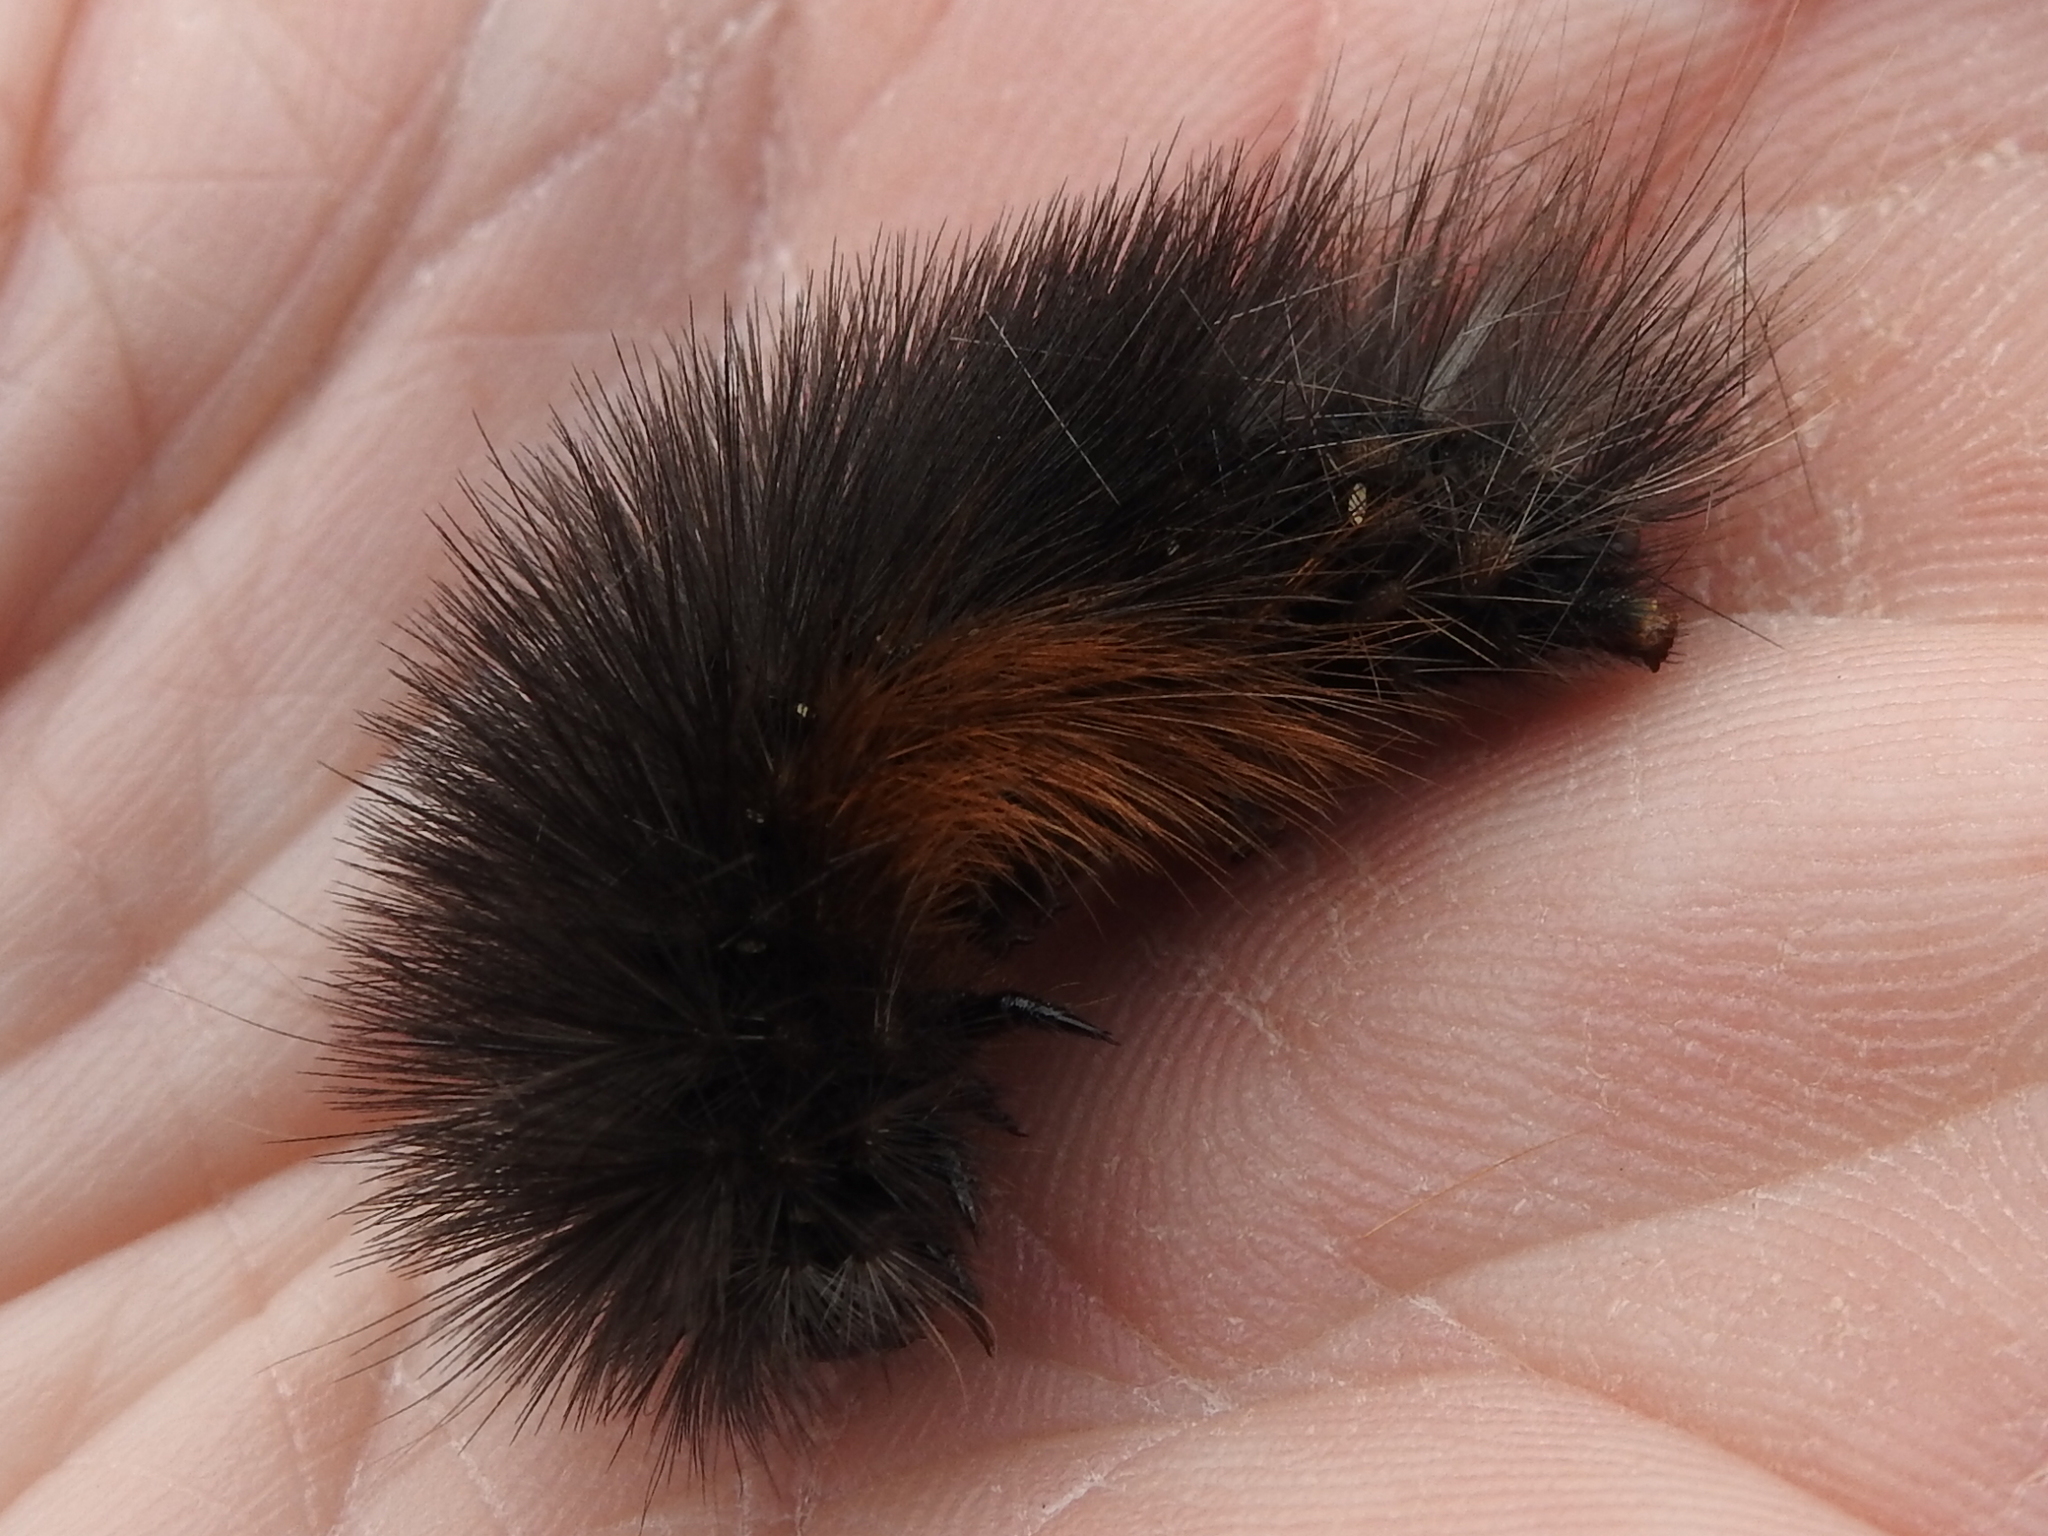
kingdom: Animalia
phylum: Arthropoda
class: Insecta
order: Lepidoptera
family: Erebidae
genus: Estigmene
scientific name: Estigmene acrea
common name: Salt marsh moth
